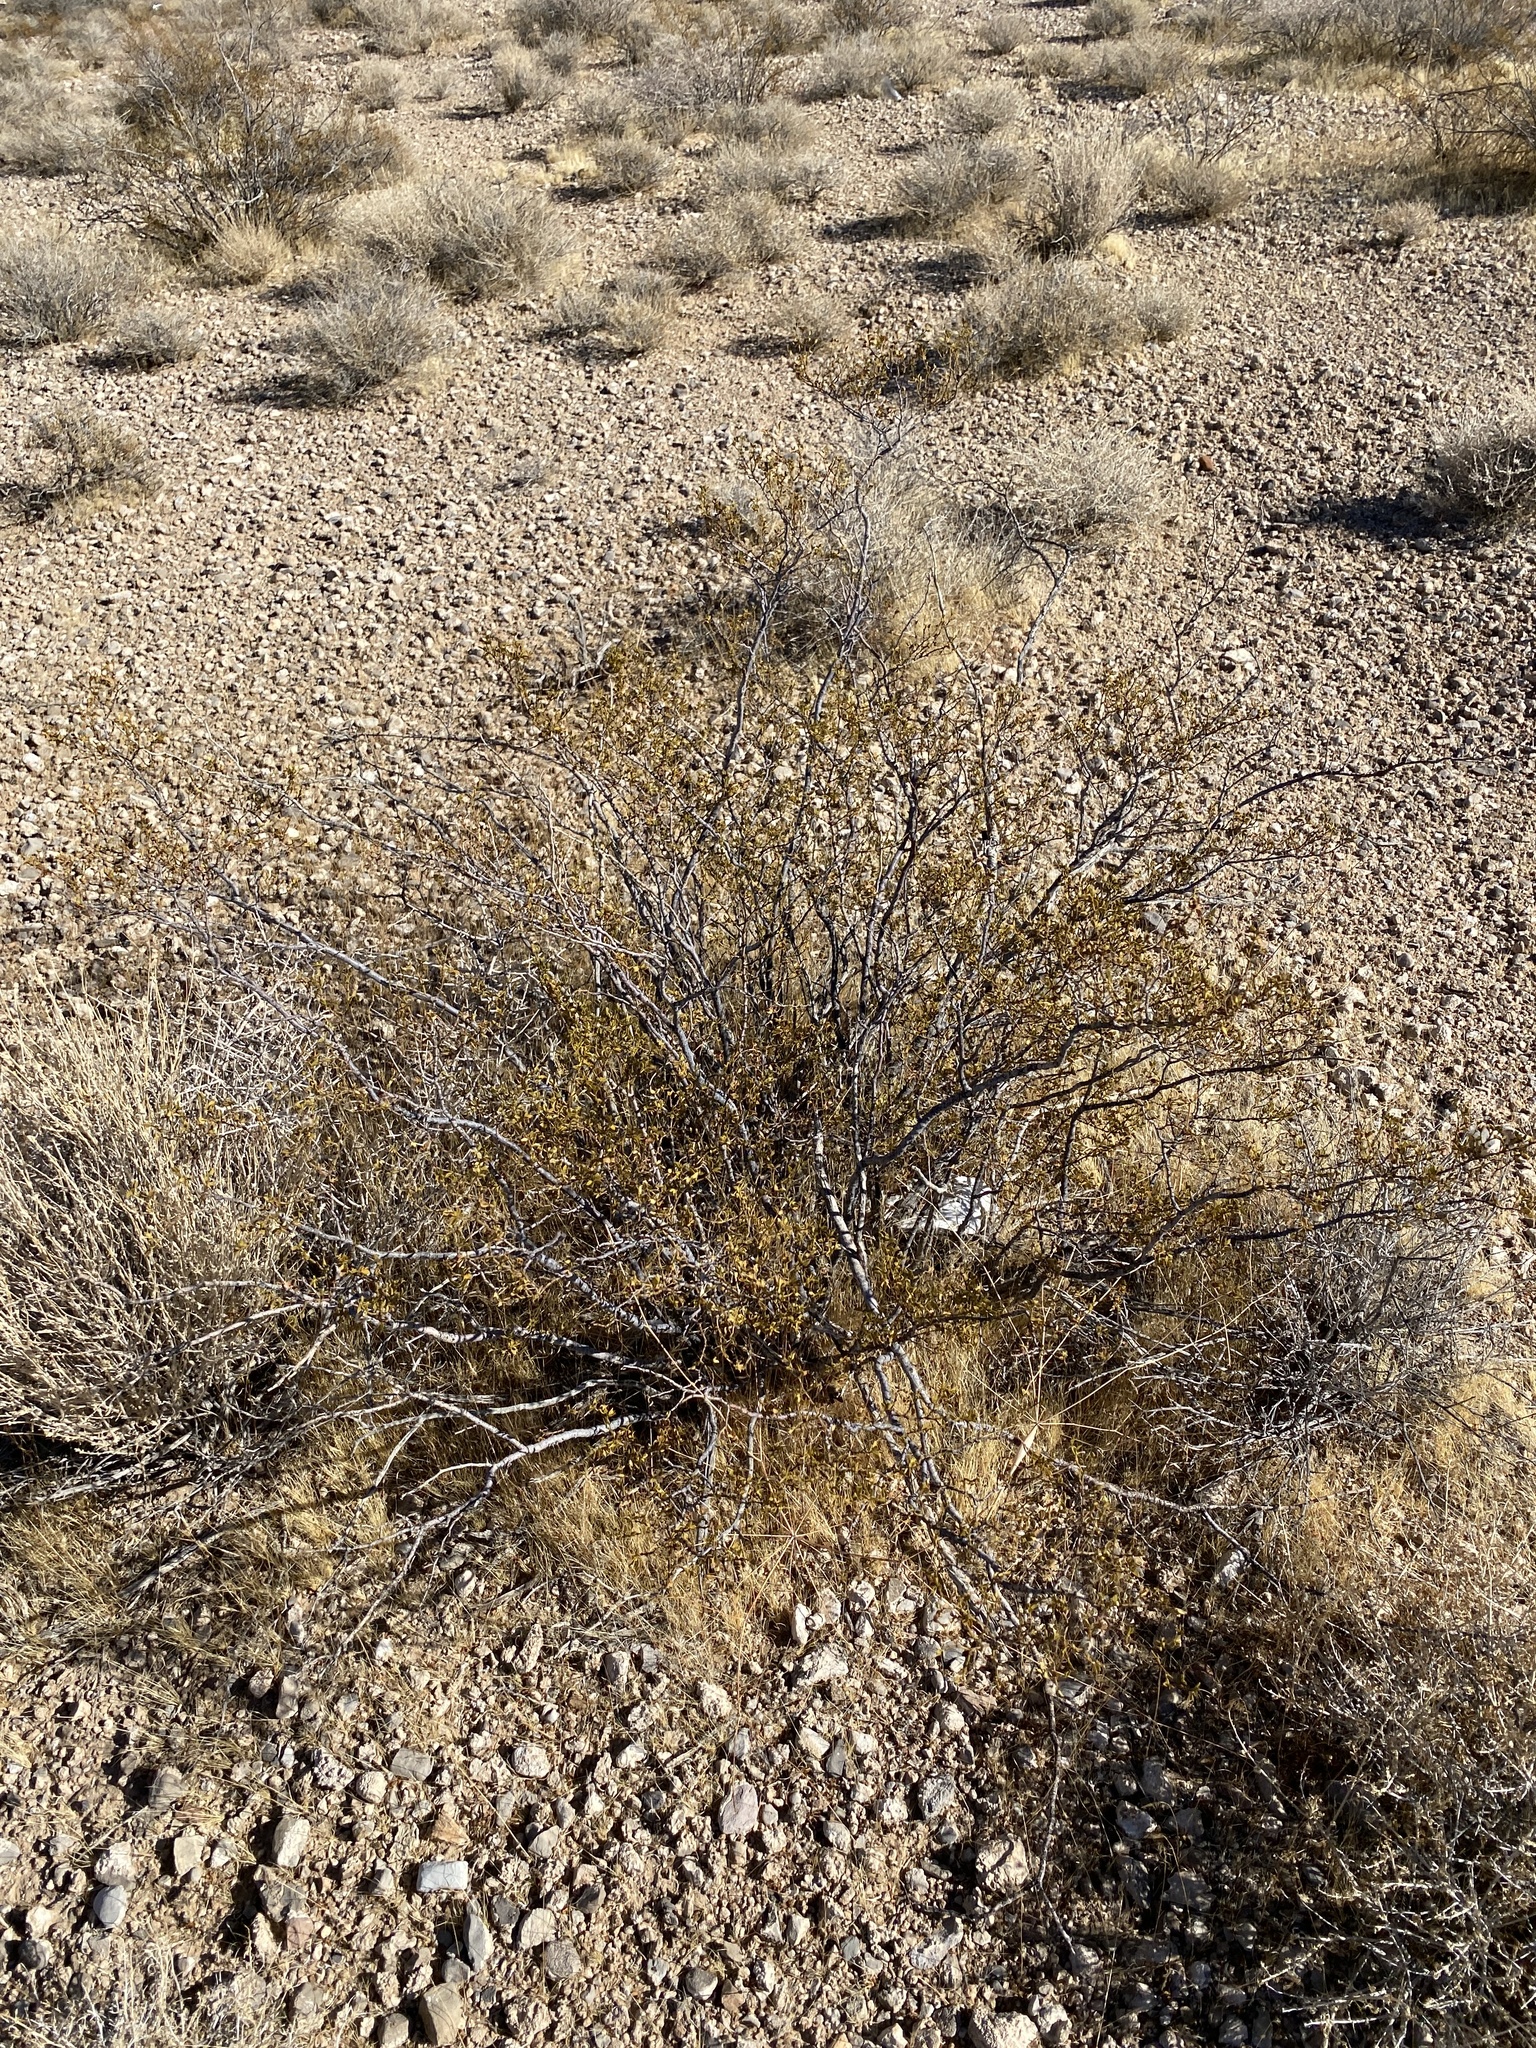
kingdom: Plantae
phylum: Tracheophyta
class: Magnoliopsida
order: Zygophyllales
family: Zygophyllaceae
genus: Larrea
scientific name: Larrea tridentata
